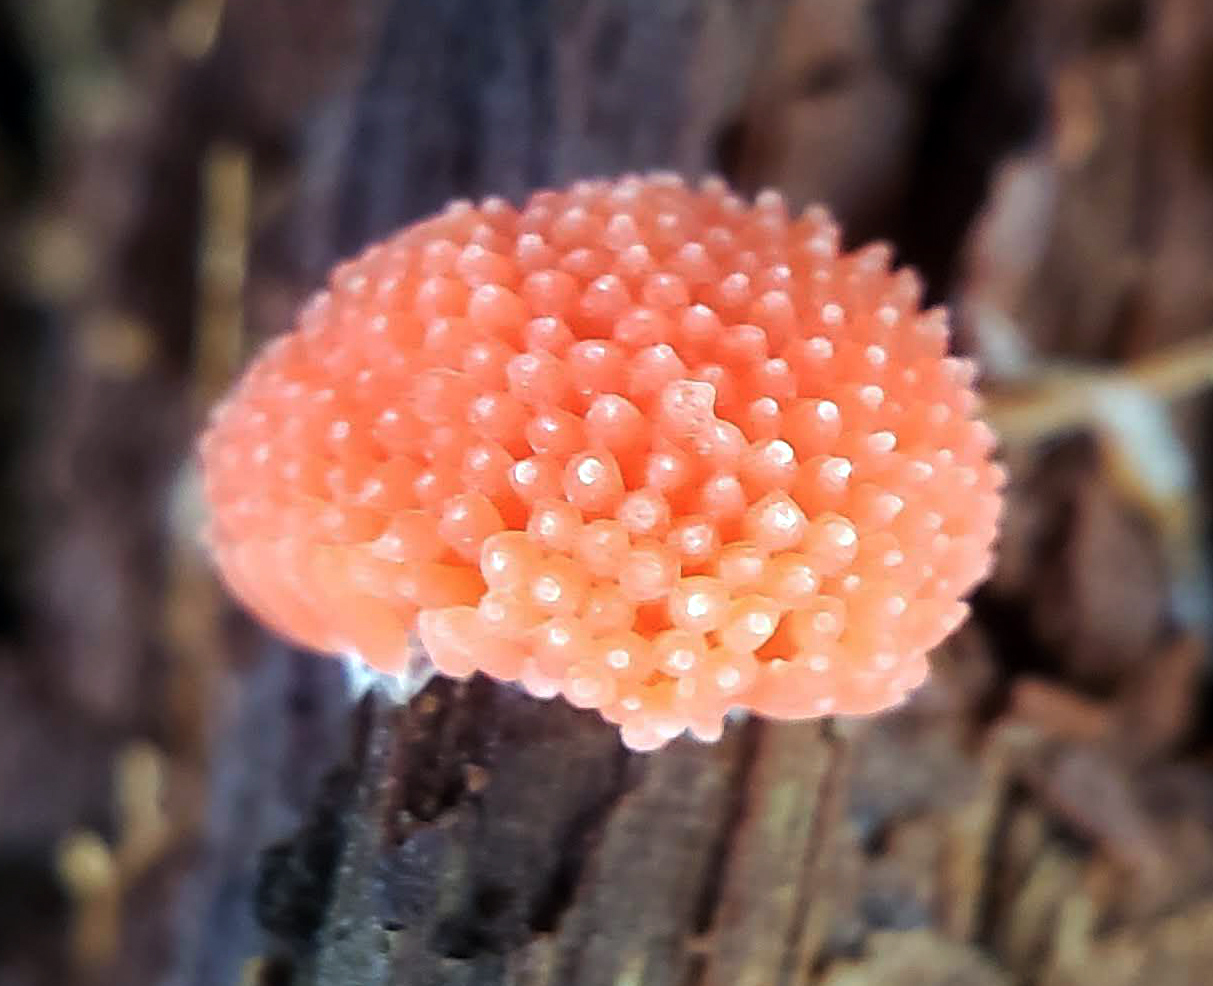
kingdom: Protozoa
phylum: Mycetozoa
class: Myxomycetes
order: Cribrariales
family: Tubiferaceae
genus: Tubifera
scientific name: Tubifera ferruginosa
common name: Red raspberry slime mold
